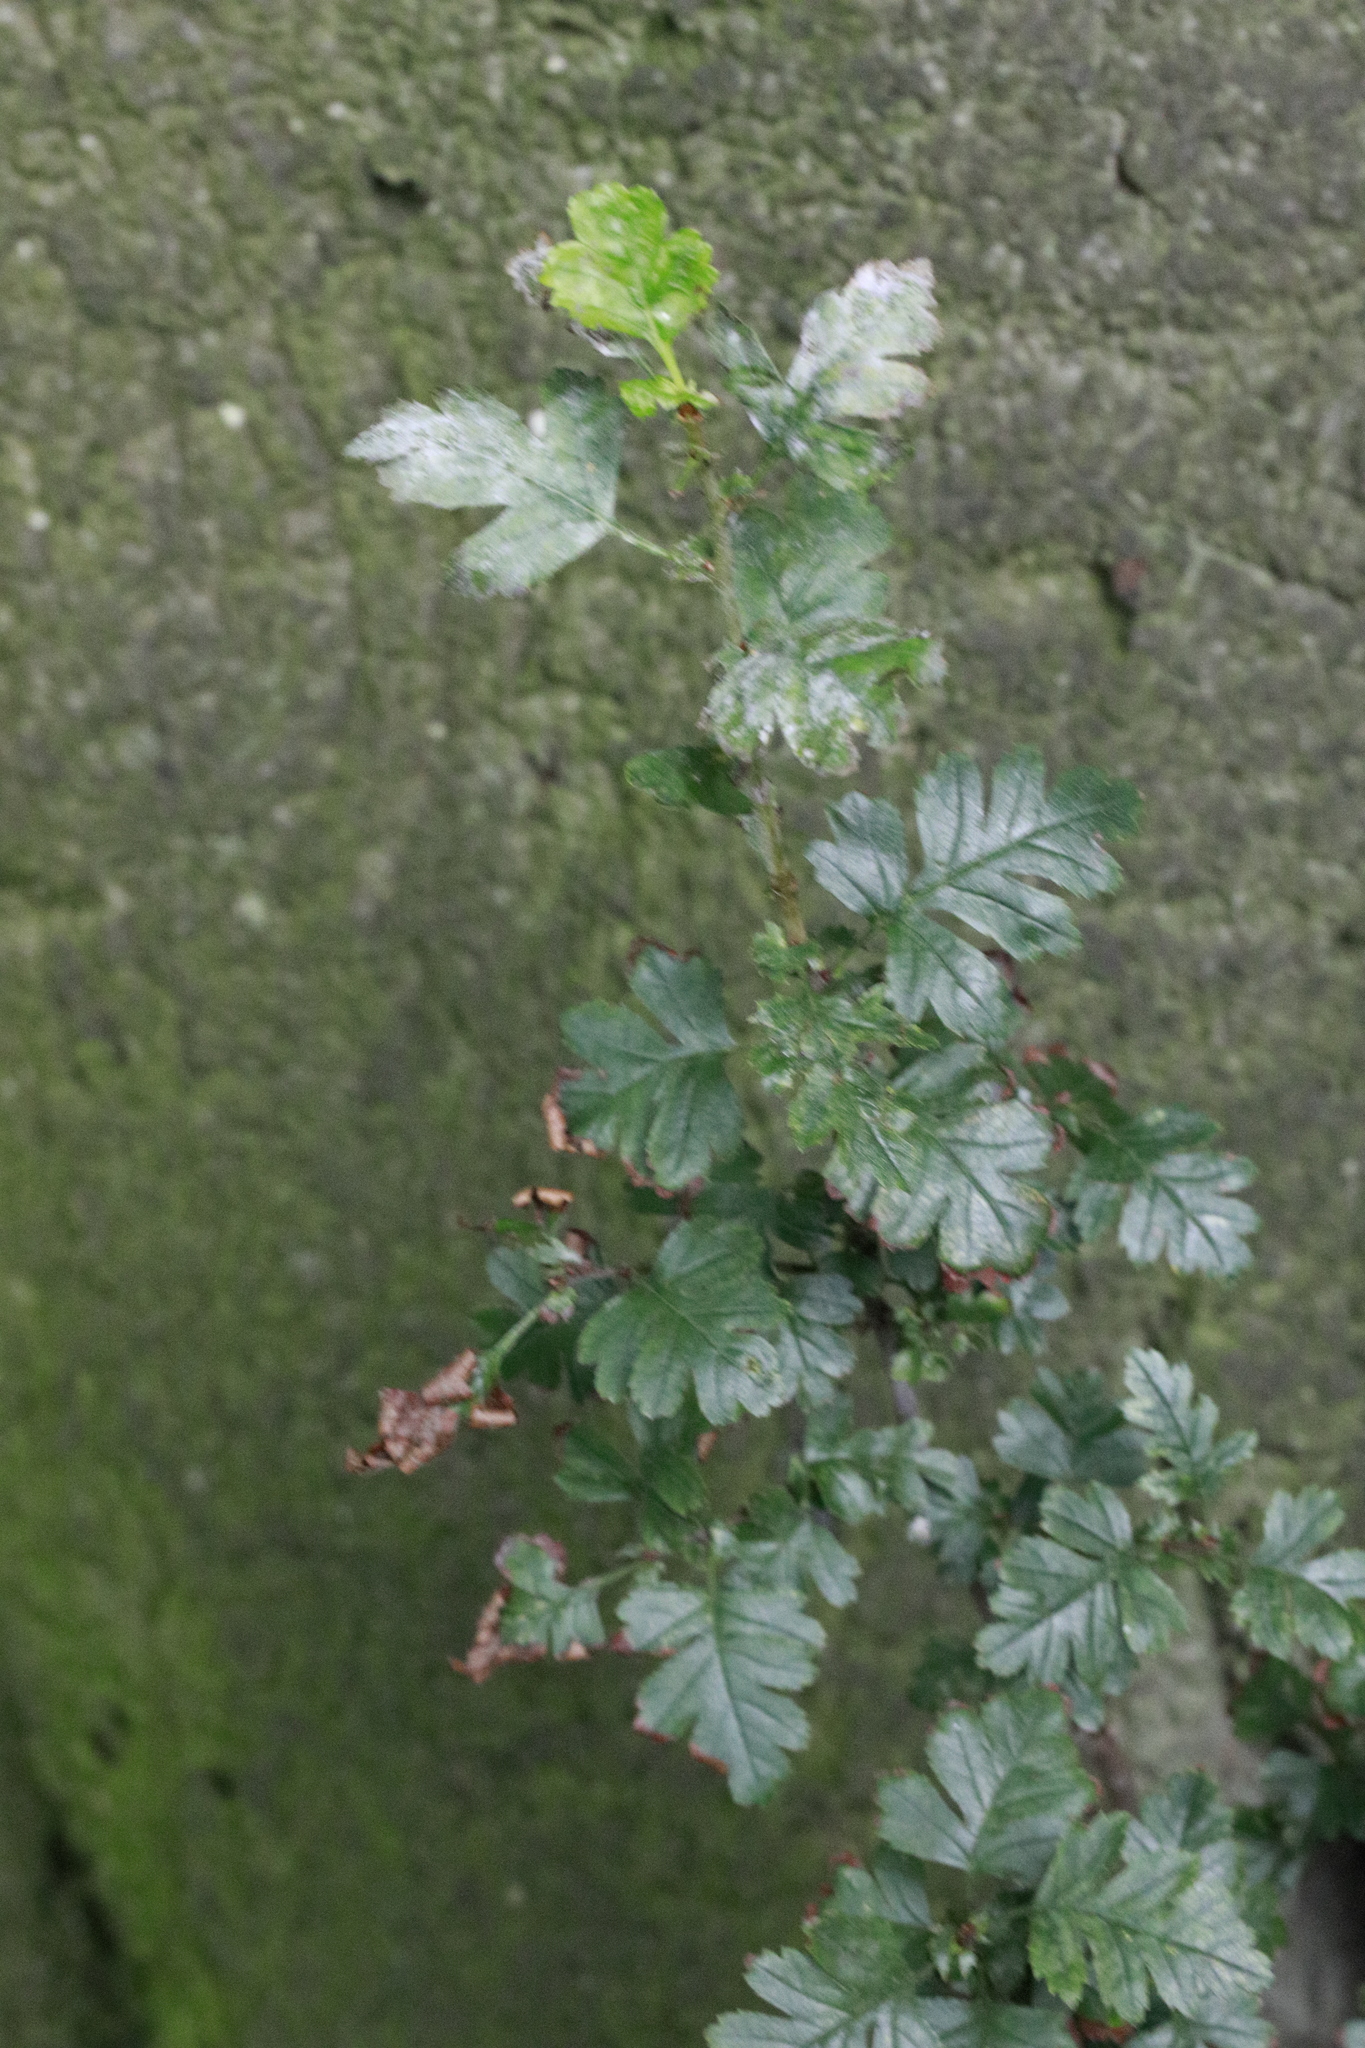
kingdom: Fungi
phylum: Ascomycota
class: Leotiomycetes
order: Helotiales
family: Erysiphaceae
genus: Podosphaera
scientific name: Podosphaera clandestina
